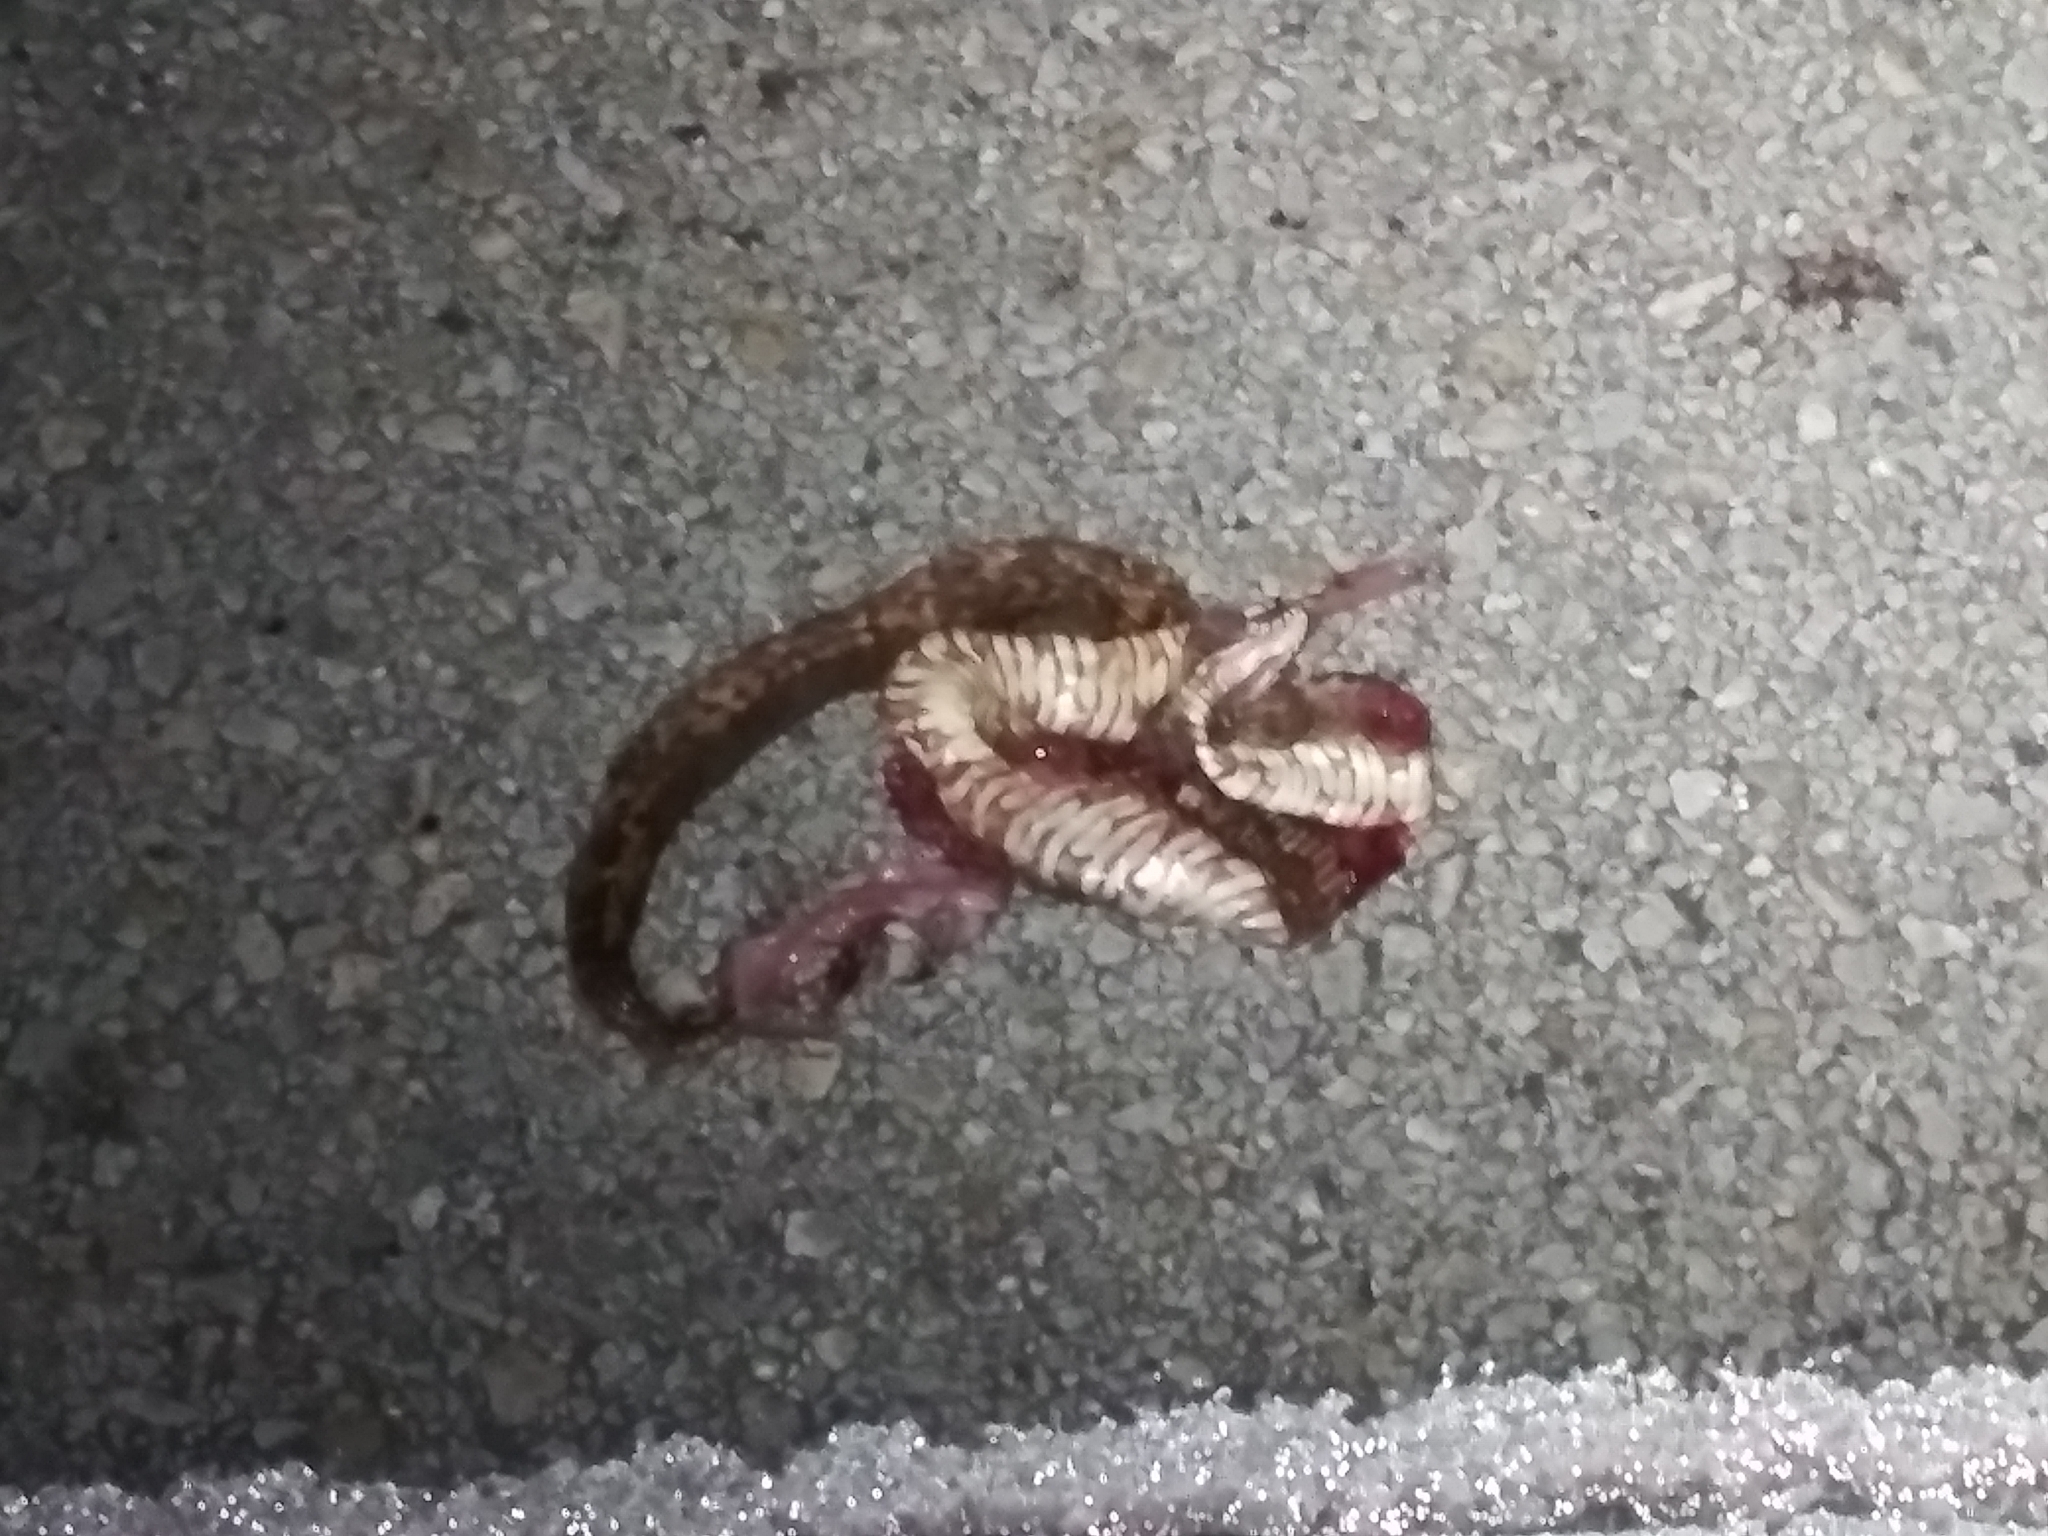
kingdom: Animalia
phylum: Chordata
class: Squamata
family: Colubridae
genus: Nerodia
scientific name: Nerodia fasciata
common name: Southern water snake
